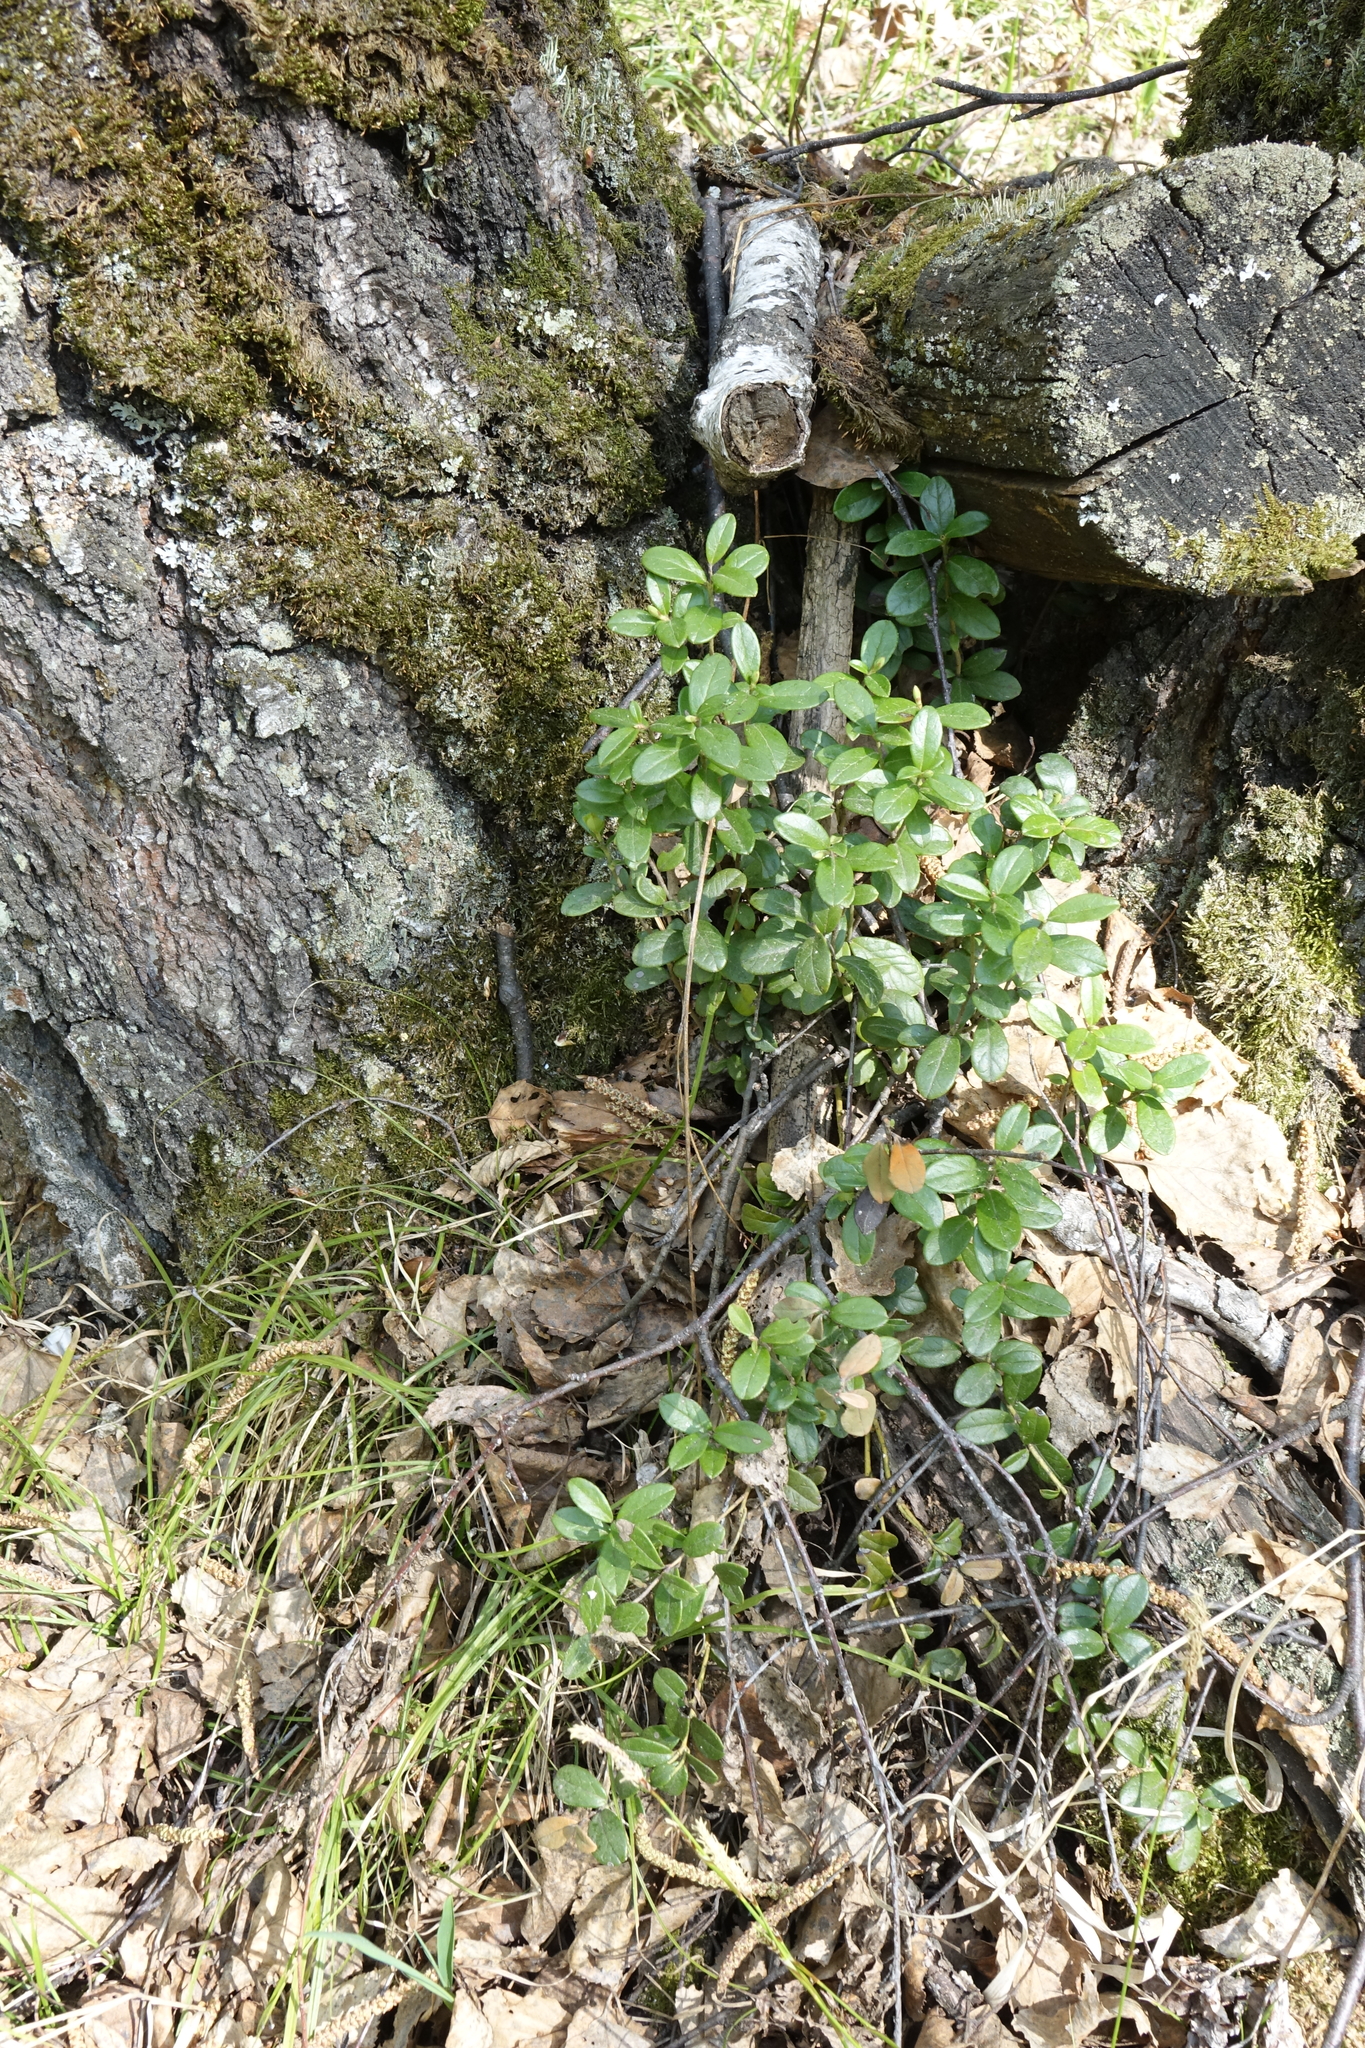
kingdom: Plantae
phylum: Tracheophyta
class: Magnoliopsida
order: Ericales
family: Ericaceae
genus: Vaccinium
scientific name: Vaccinium vitis-idaea
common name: Cowberry
